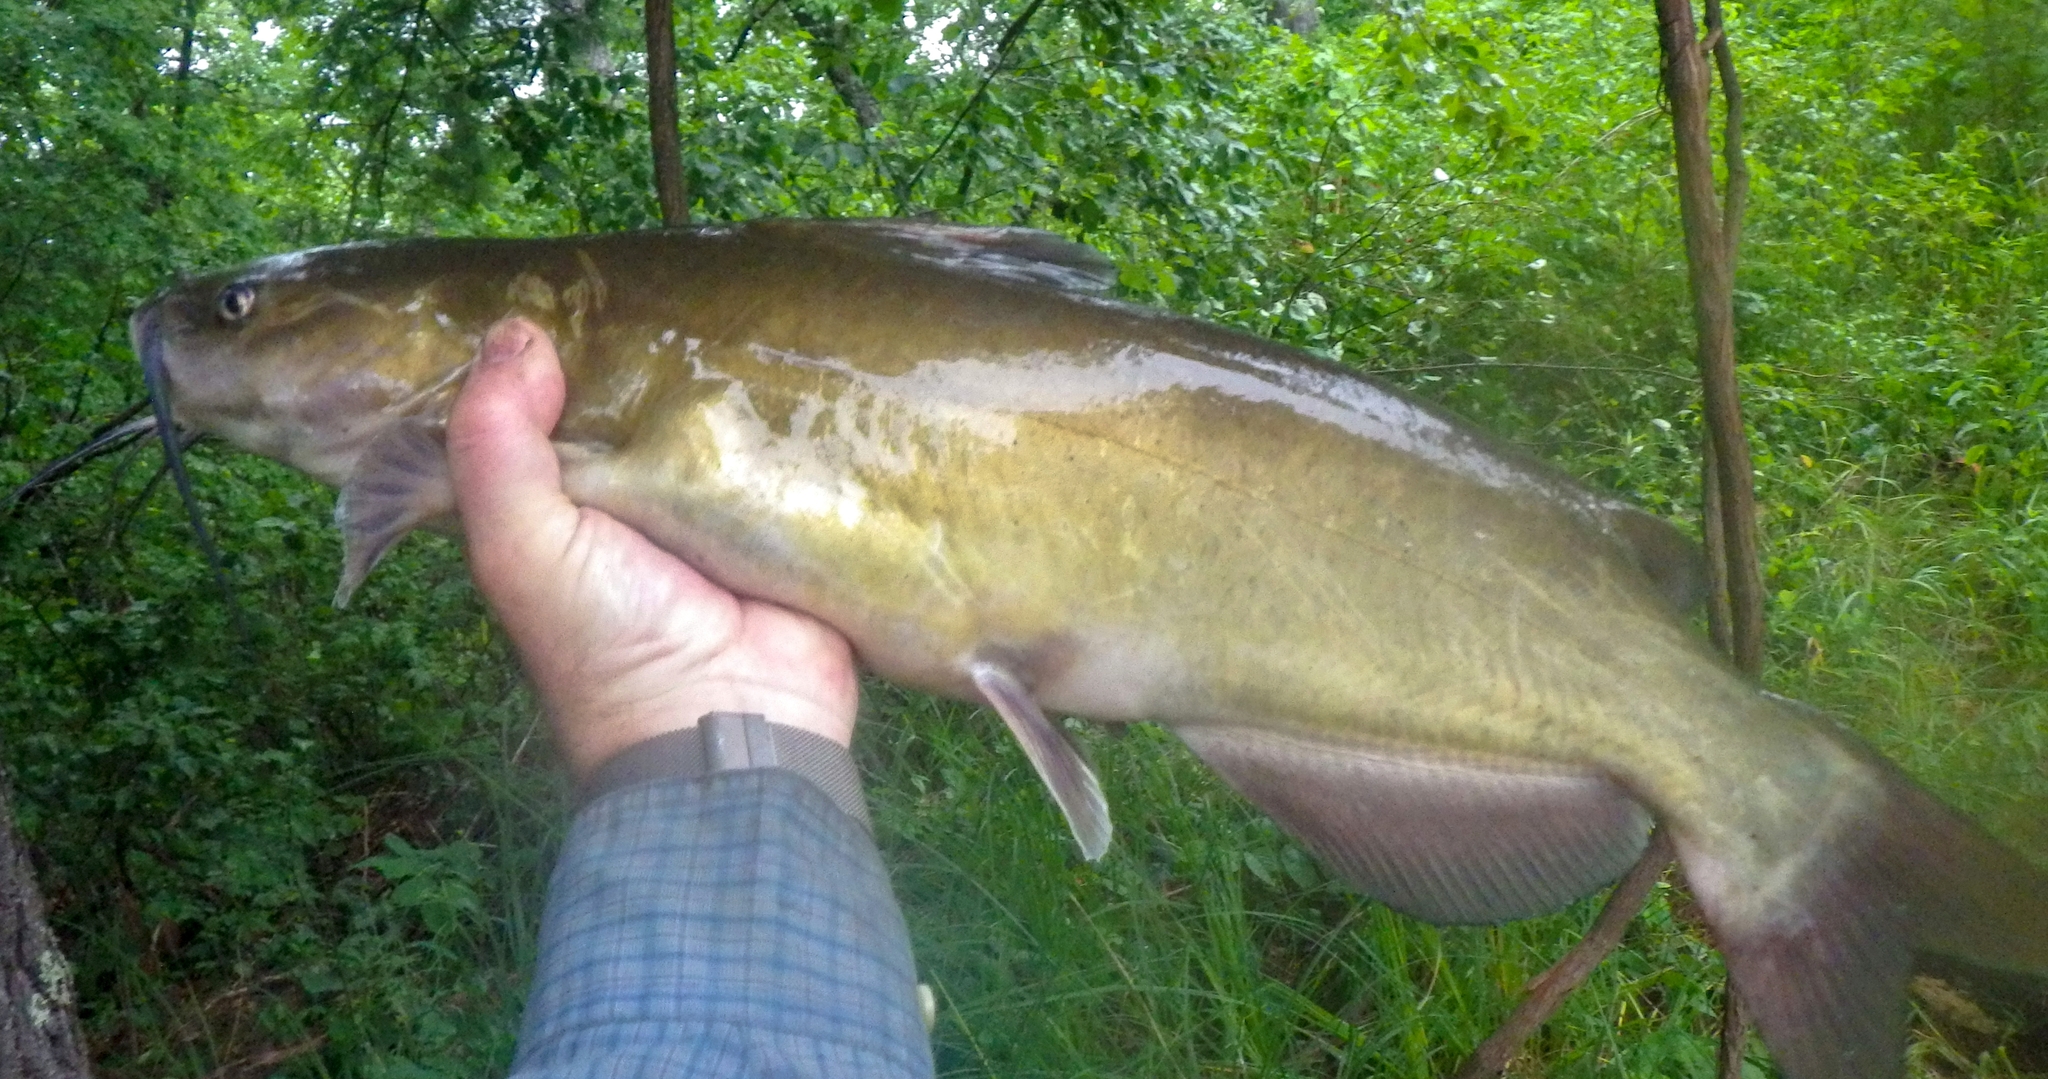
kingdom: Animalia
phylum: Chordata
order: Siluriformes
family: Ictaluridae
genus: Ictalurus
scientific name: Ictalurus punctatus
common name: Channel catfish
